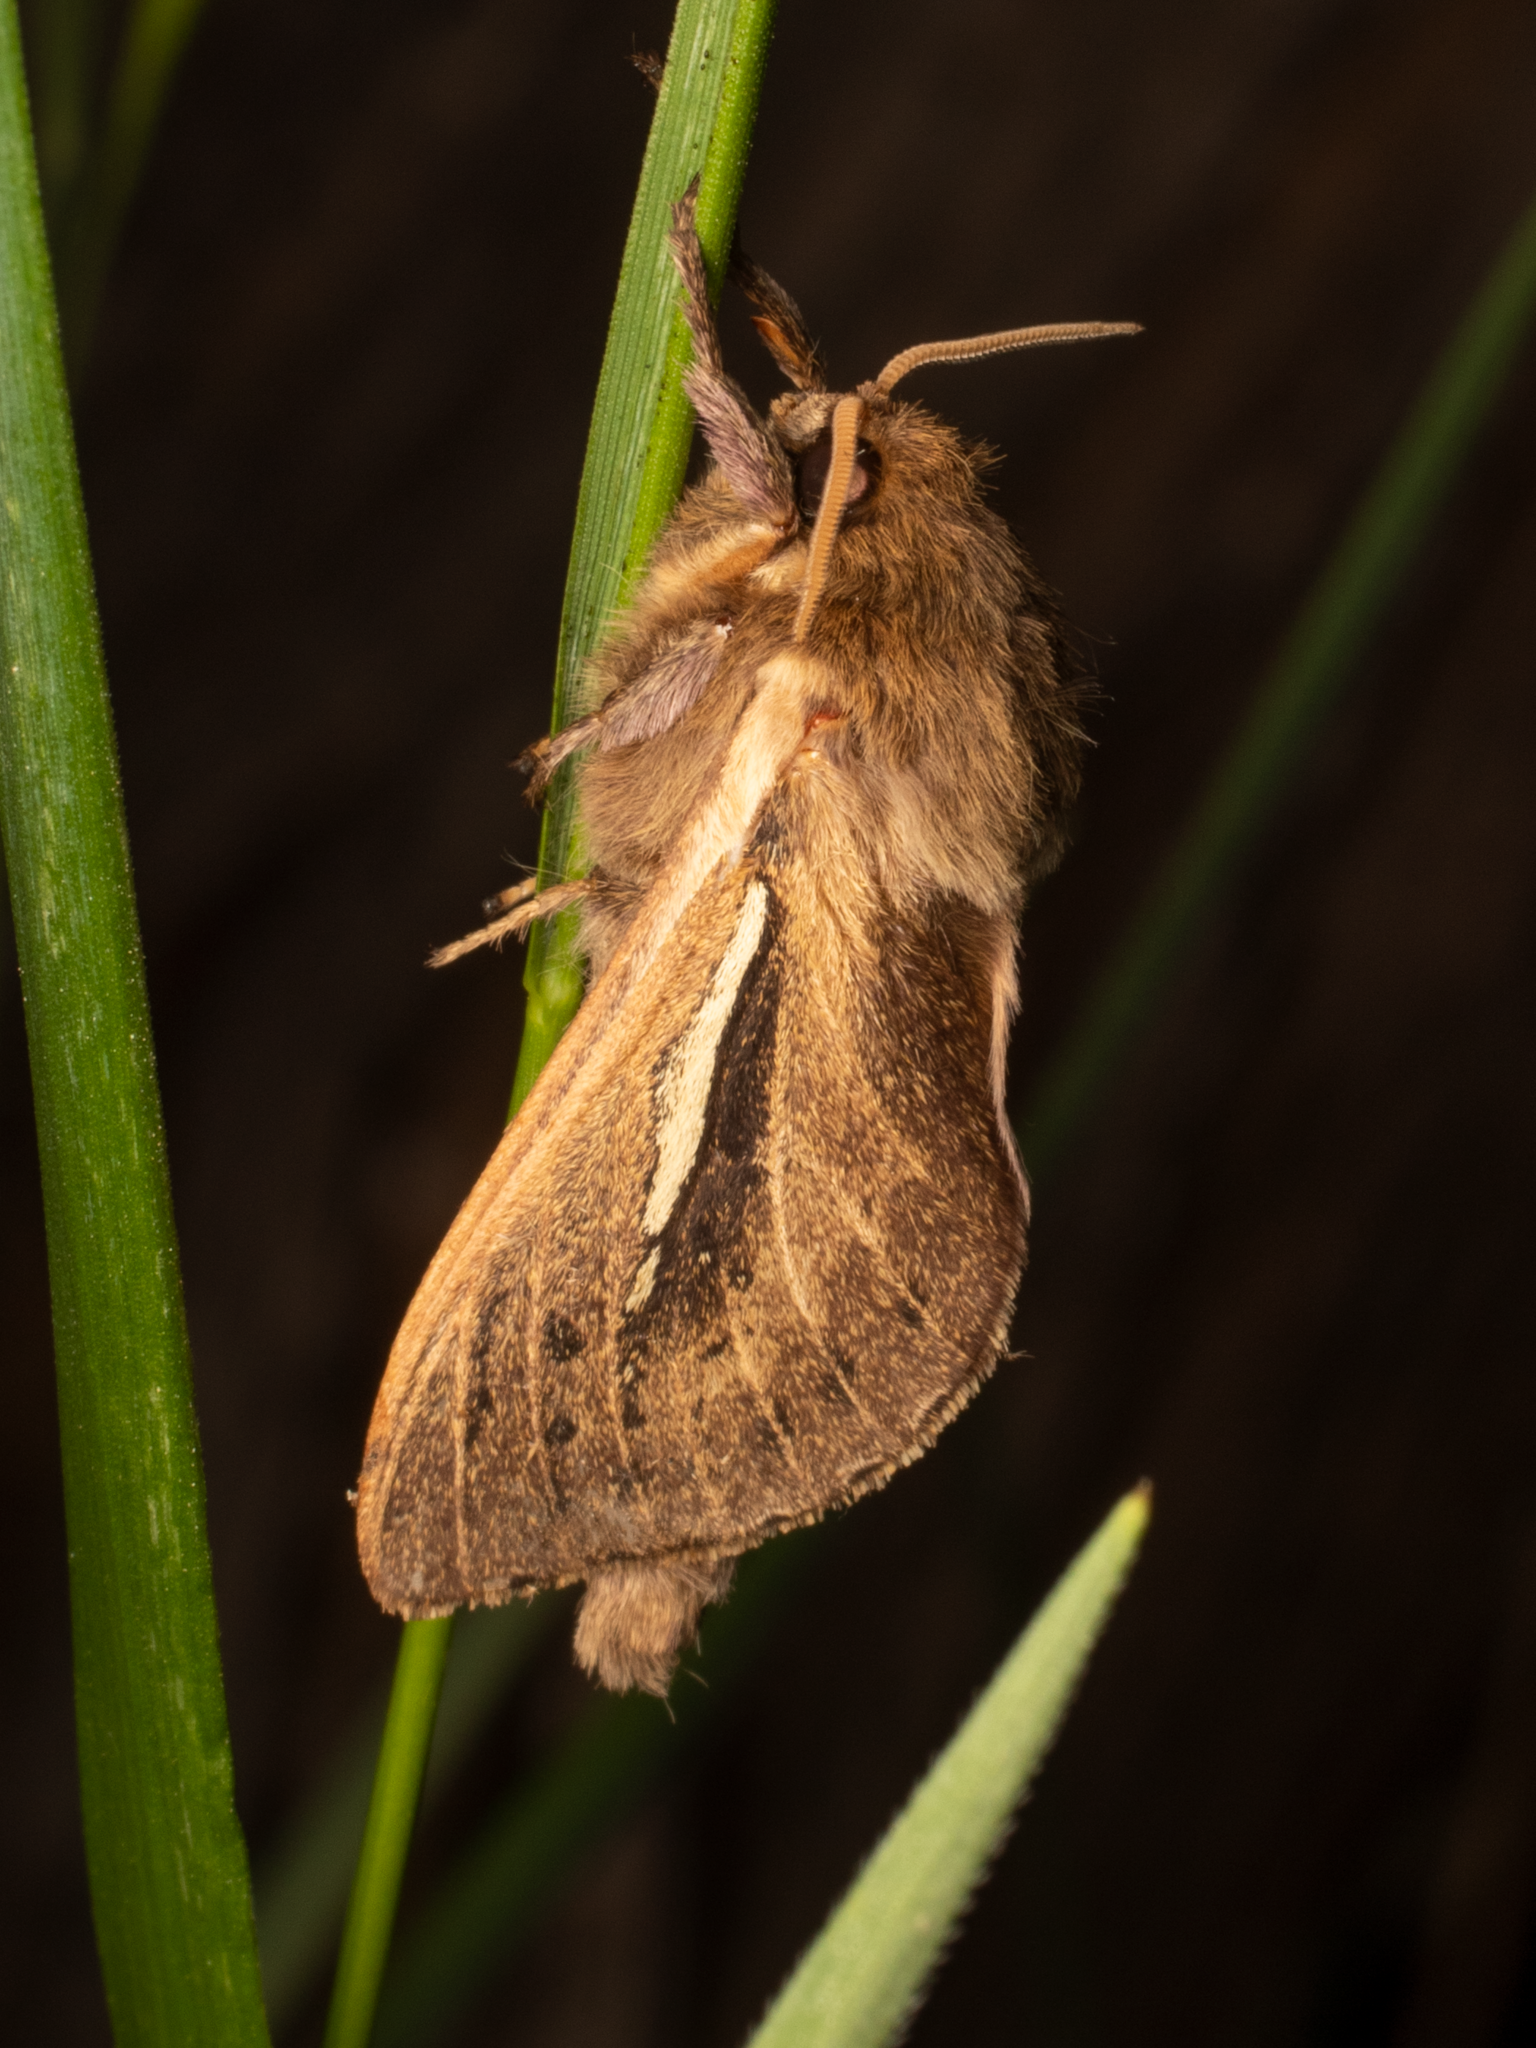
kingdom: Animalia
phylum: Arthropoda
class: Insecta
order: Lepidoptera
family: Hepialidae
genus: Wiseana
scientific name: Wiseana umbraculatus
